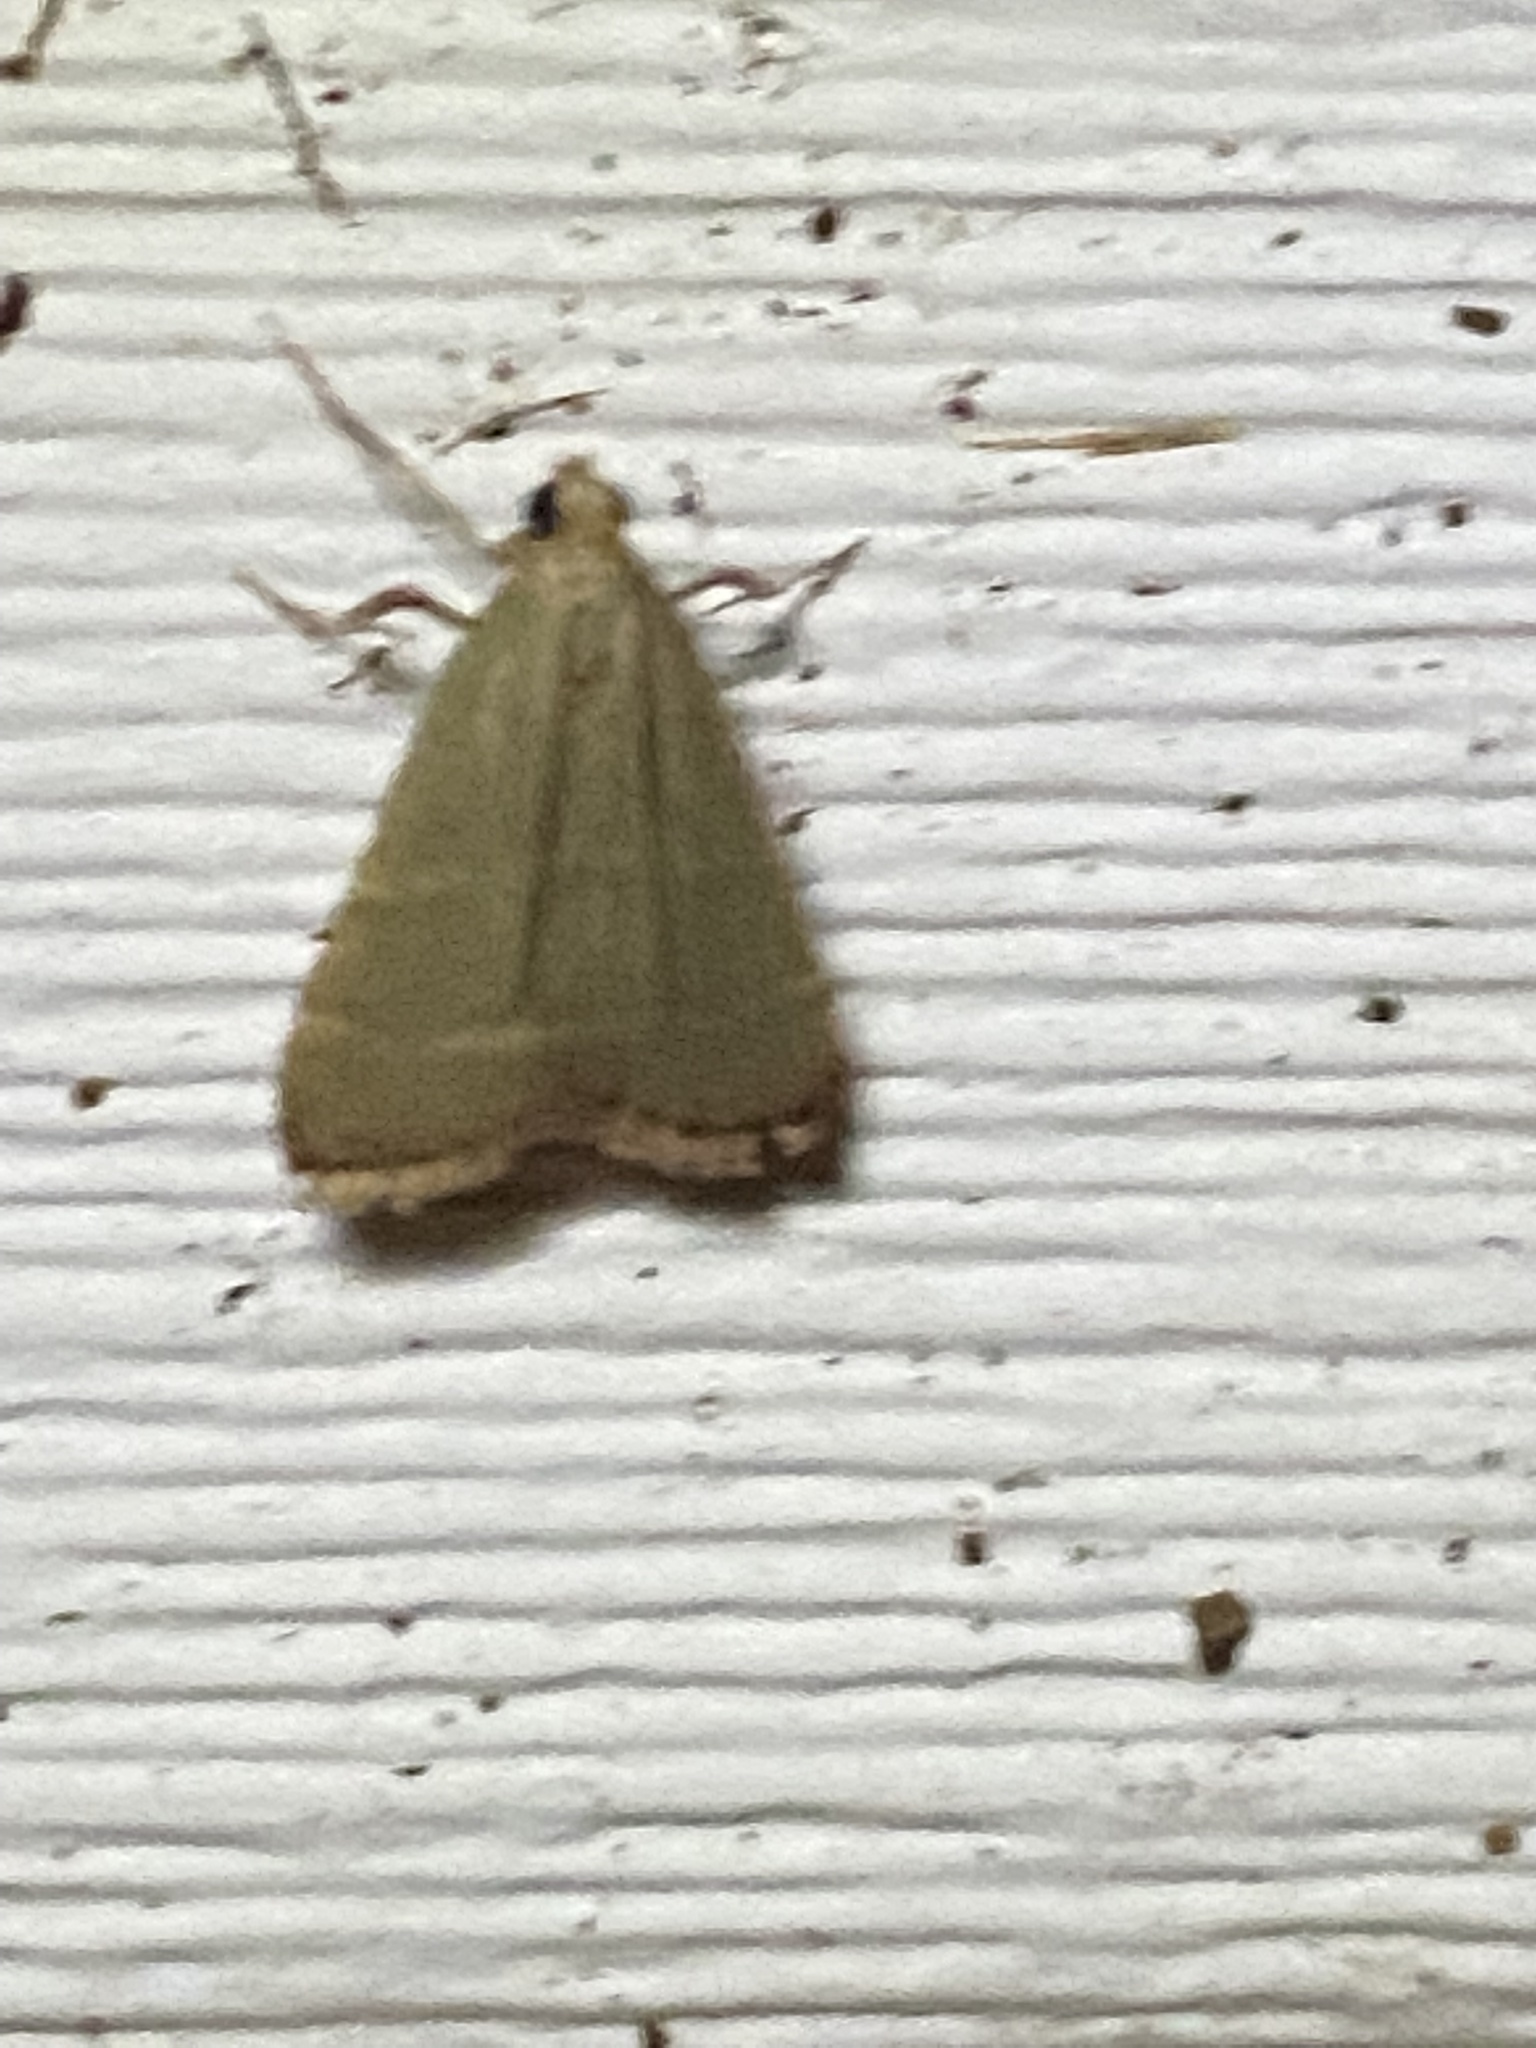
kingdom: Animalia
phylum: Arthropoda
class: Insecta
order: Lepidoptera
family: Pyralidae
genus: Arta
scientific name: Arta olivalis
